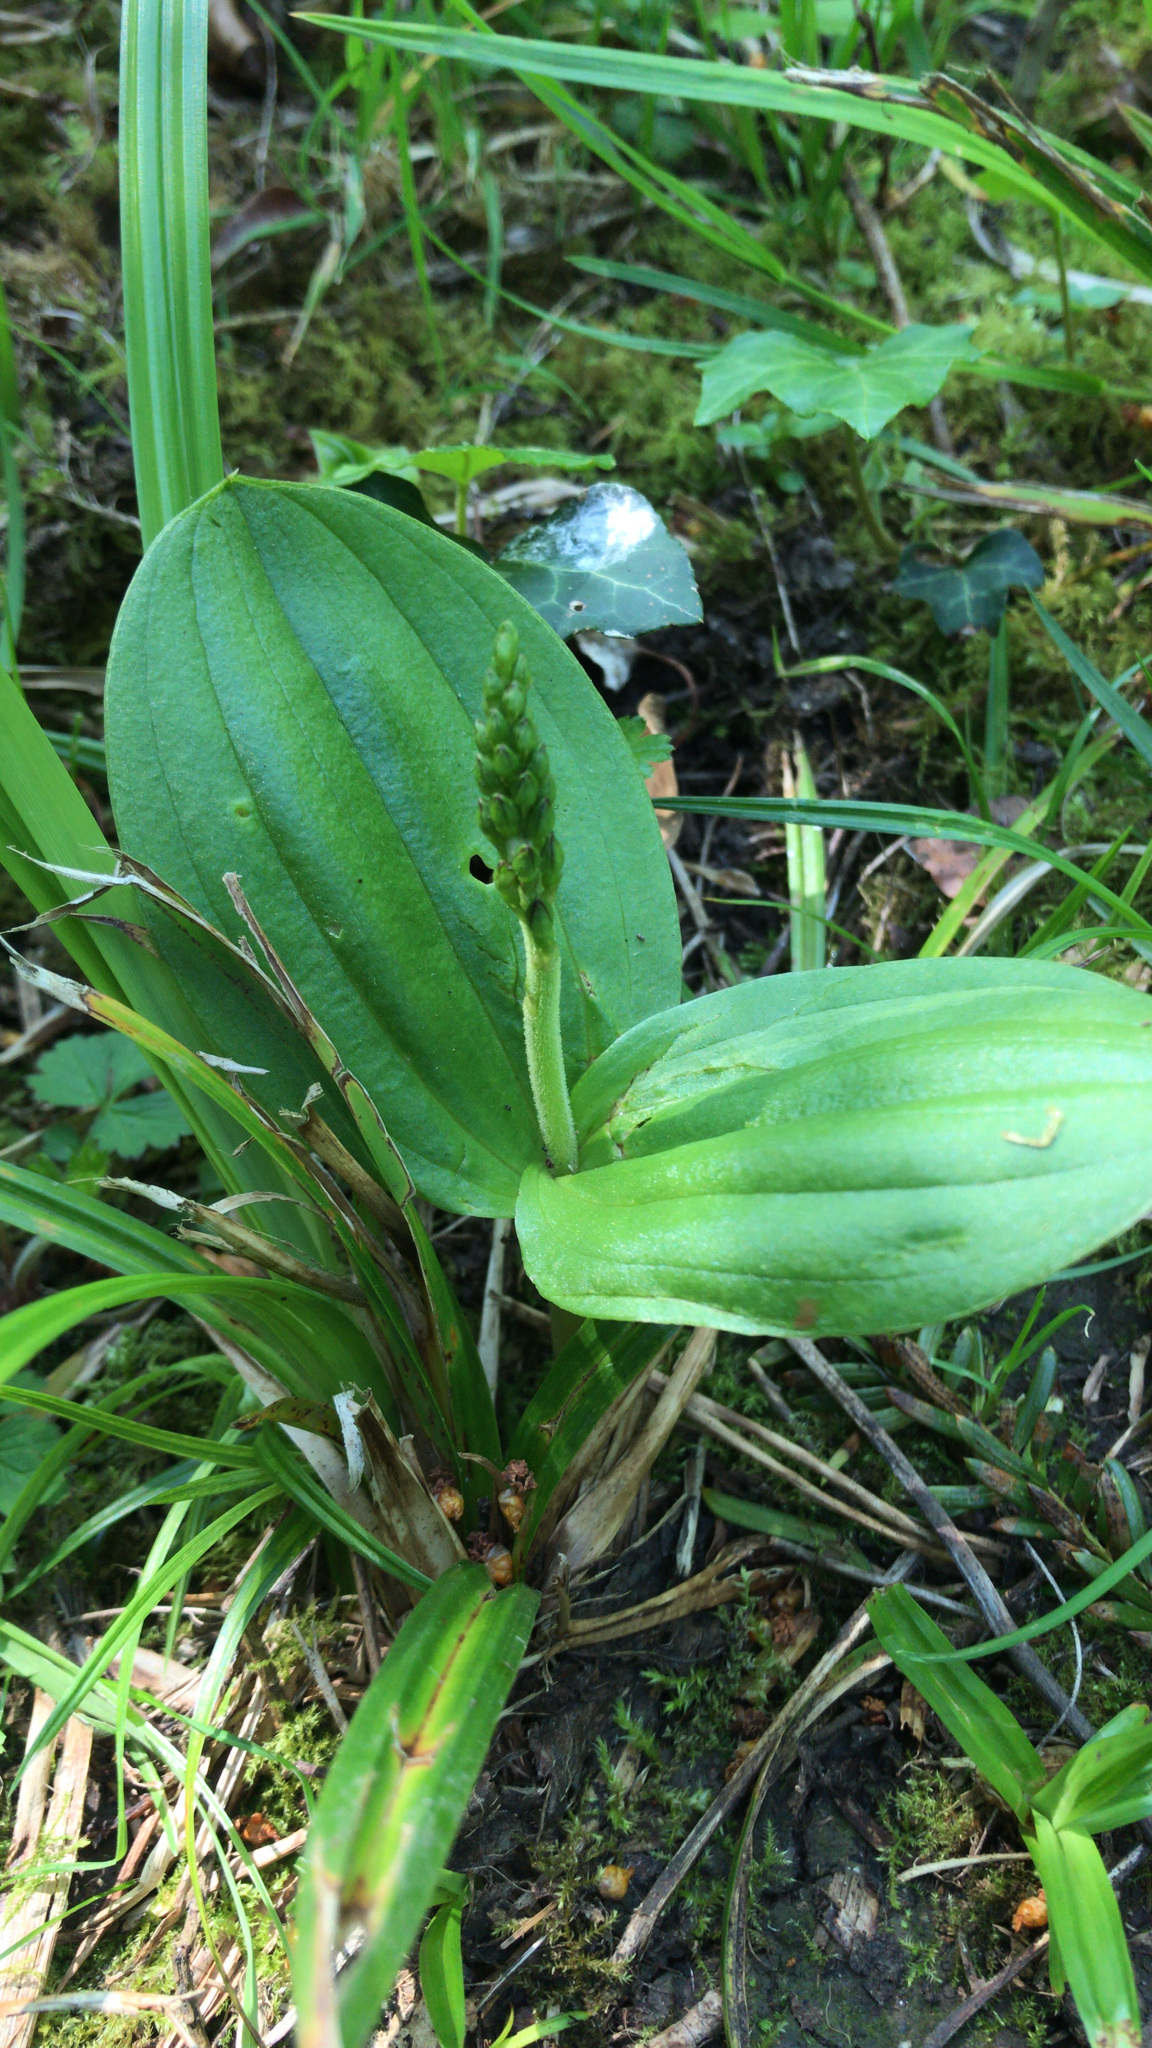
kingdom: Plantae
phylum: Tracheophyta
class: Liliopsida
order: Asparagales
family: Orchidaceae
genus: Neottia
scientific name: Neottia ovata
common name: Common twayblade
